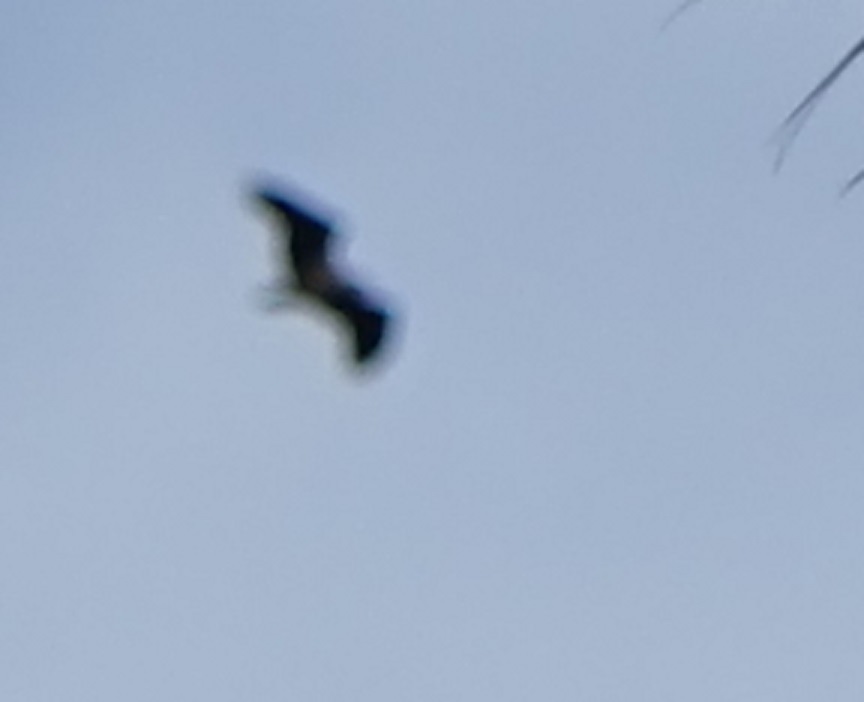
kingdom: Animalia
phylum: Chordata
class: Aves
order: Accipitriformes
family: Accipitridae
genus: Haliaeetus
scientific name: Haliaeetus leucogaster
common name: White-bellied sea eagle
